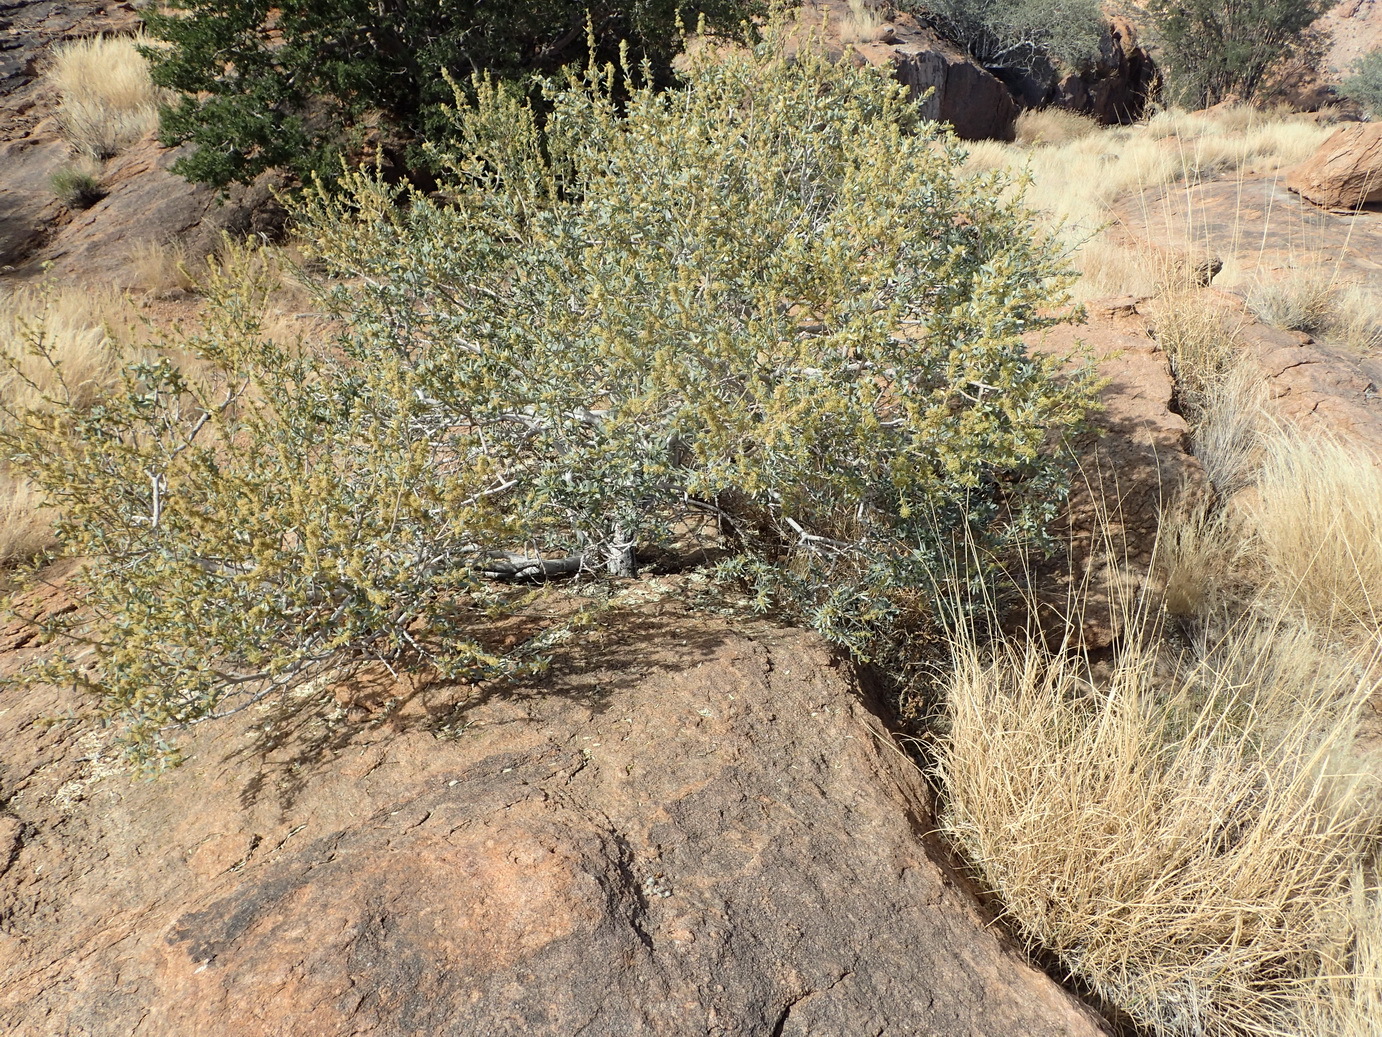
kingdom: Plantae
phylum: Tracheophyta
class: Magnoliopsida
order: Brassicales
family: Capparaceae
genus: Boscia
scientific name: Boscia albitrunca
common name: Caper bush
